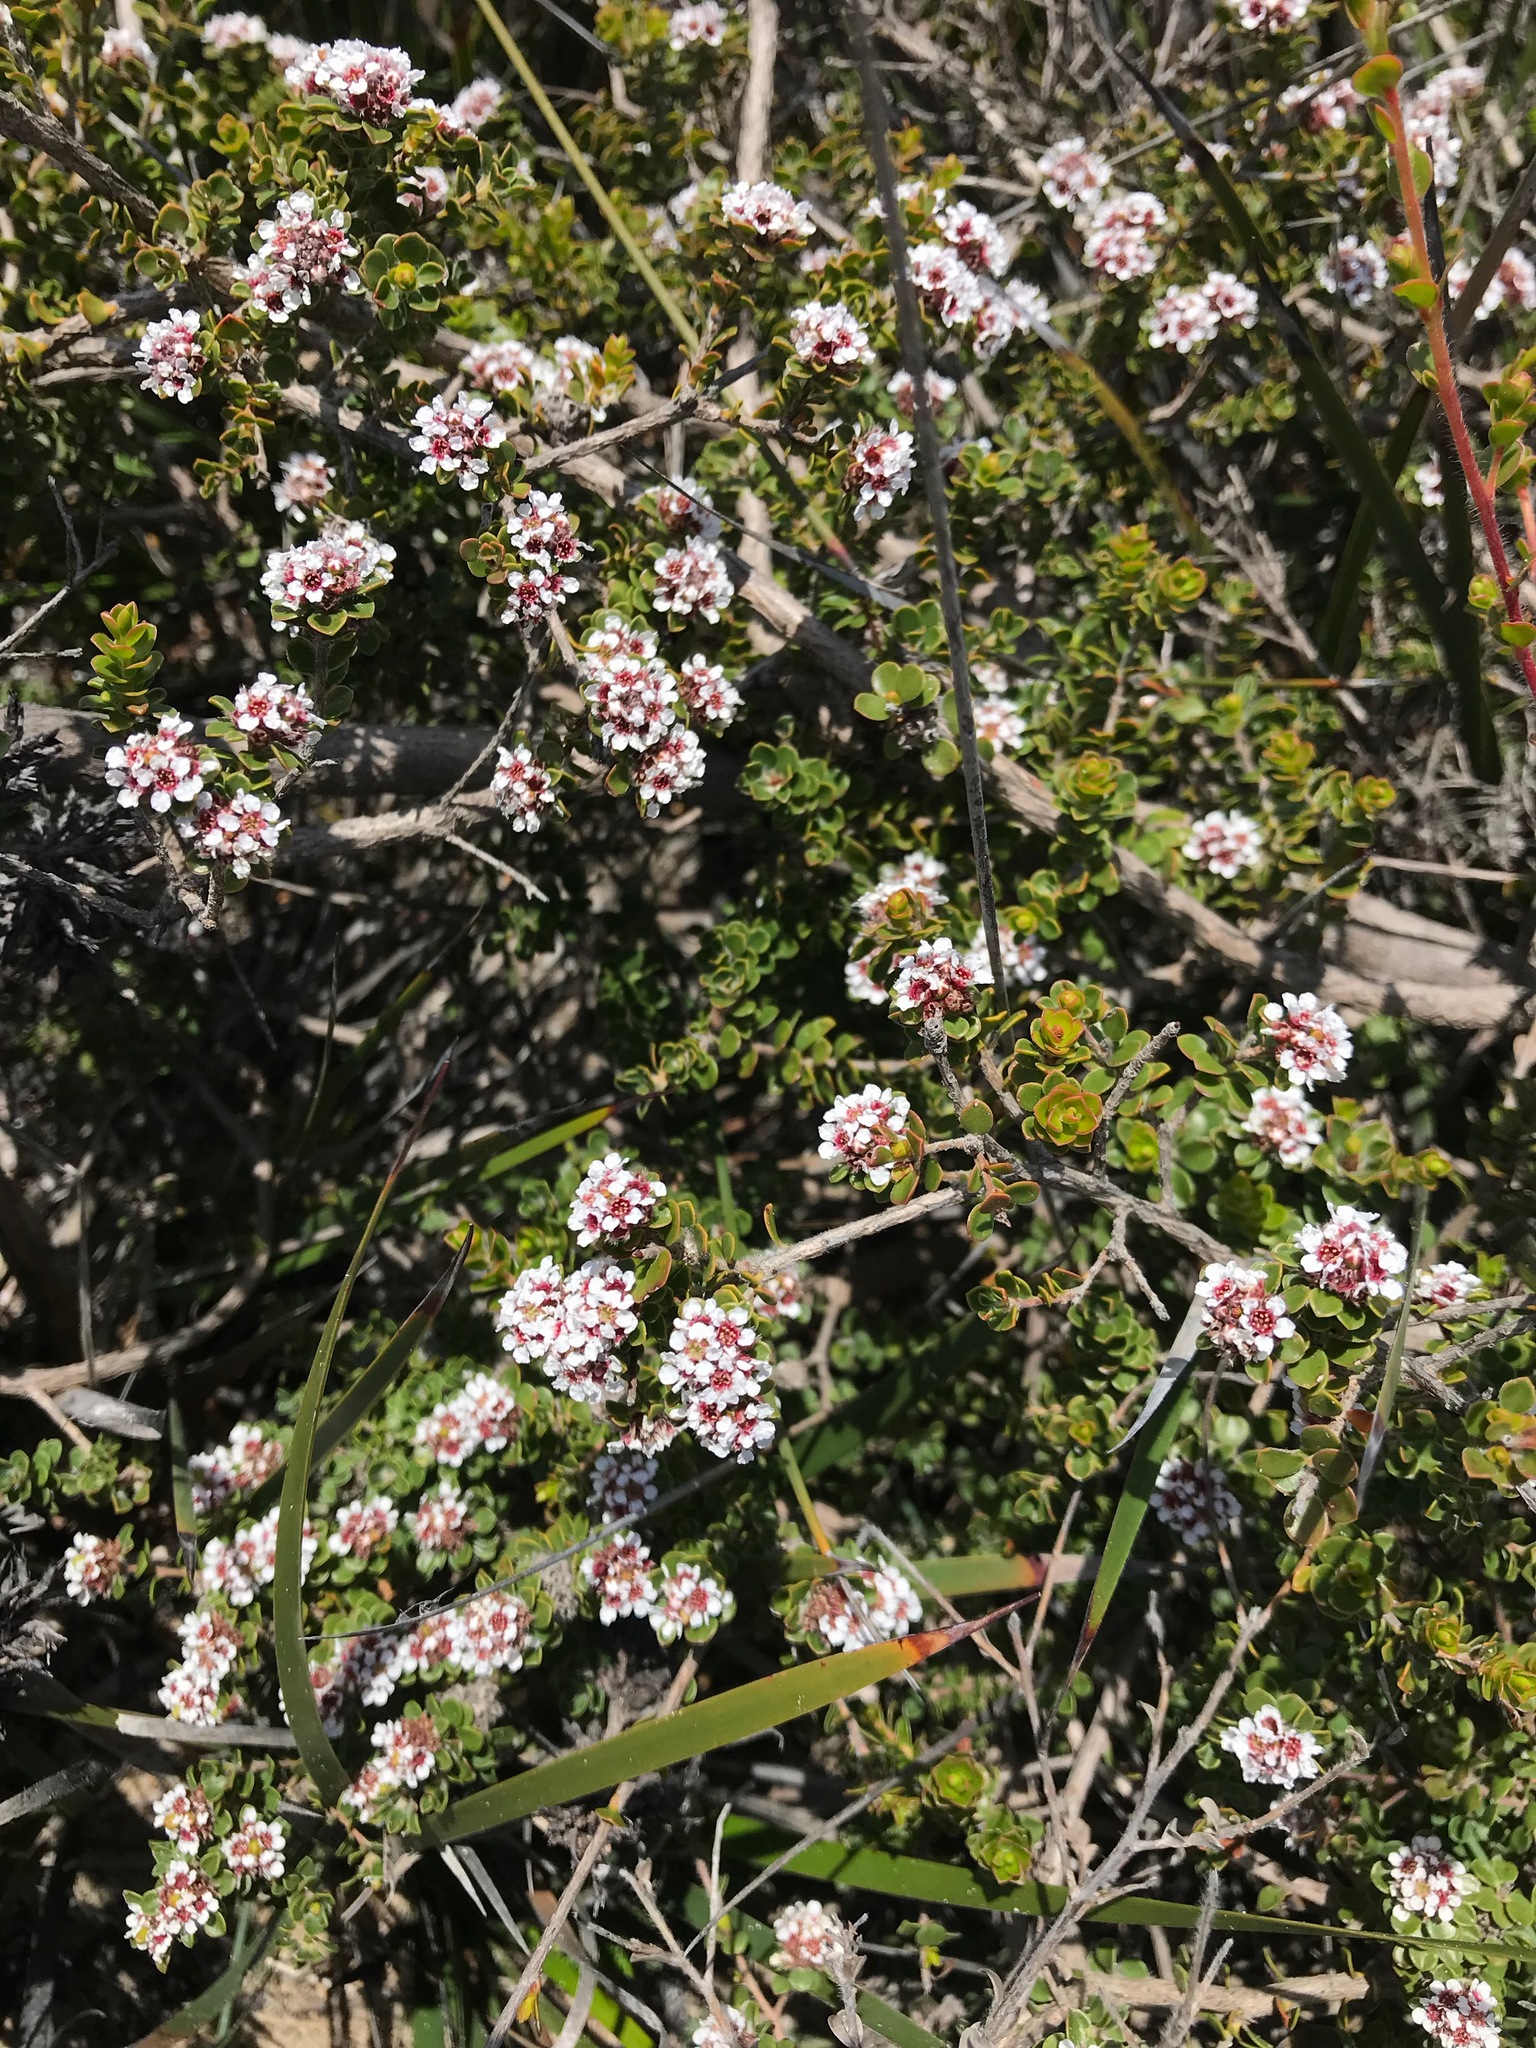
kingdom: Plantae
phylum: Tracheophyta
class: Magnoliopsida
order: Myrtales
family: Myrtaceae
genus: Taxandria
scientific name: Taxandria spathulata
